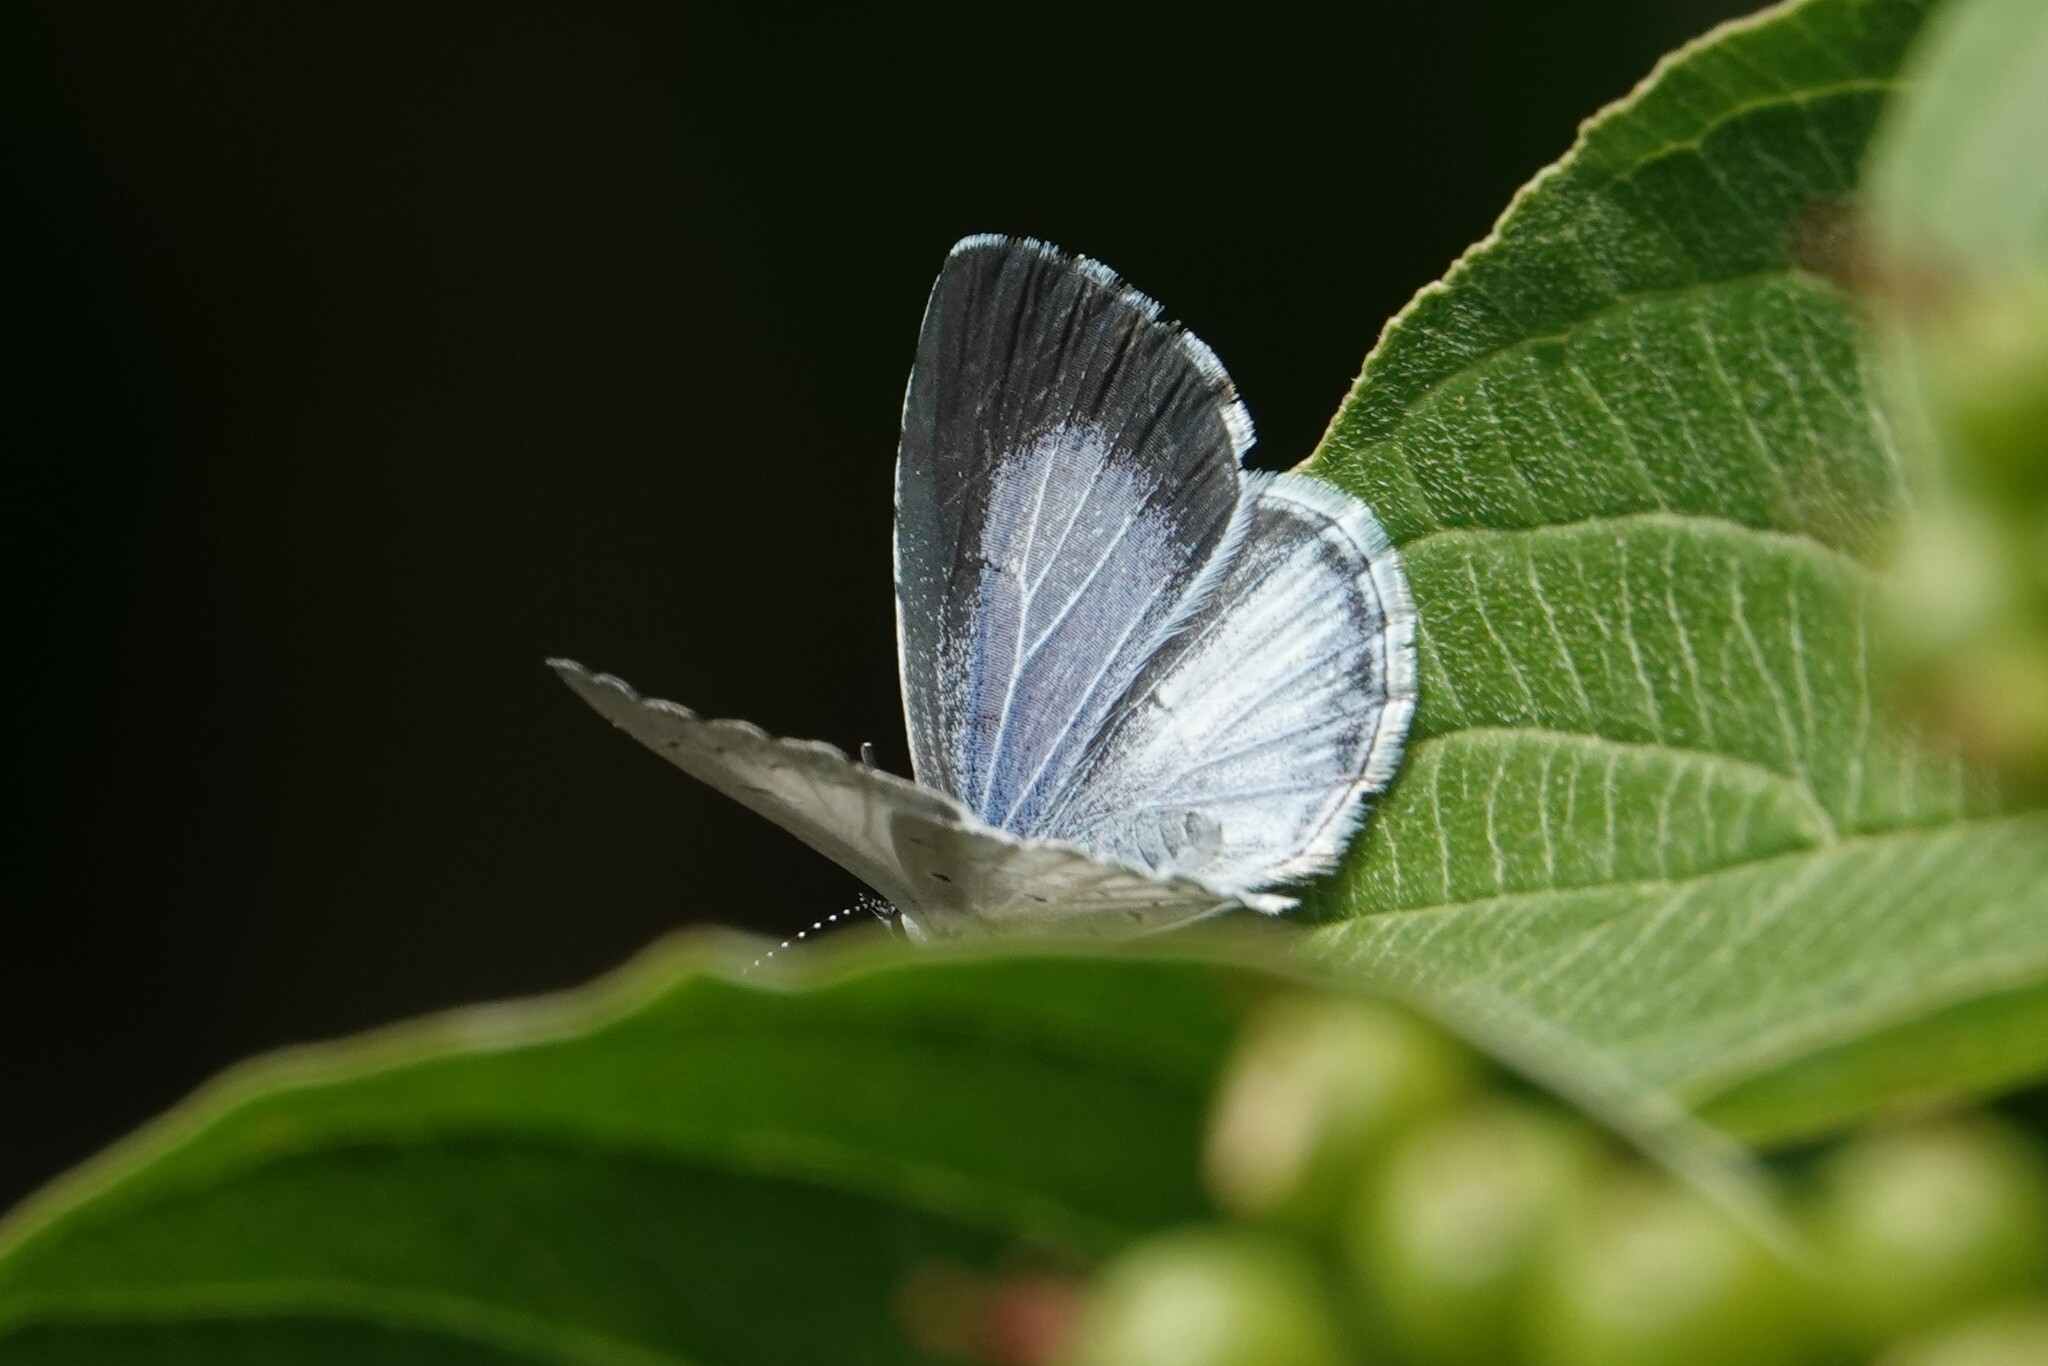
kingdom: Animalia
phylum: Arthropoda
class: Insecta
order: Lepidoptera
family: Lycaenidae
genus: Cyaniris
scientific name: Cyaniris neglecta
